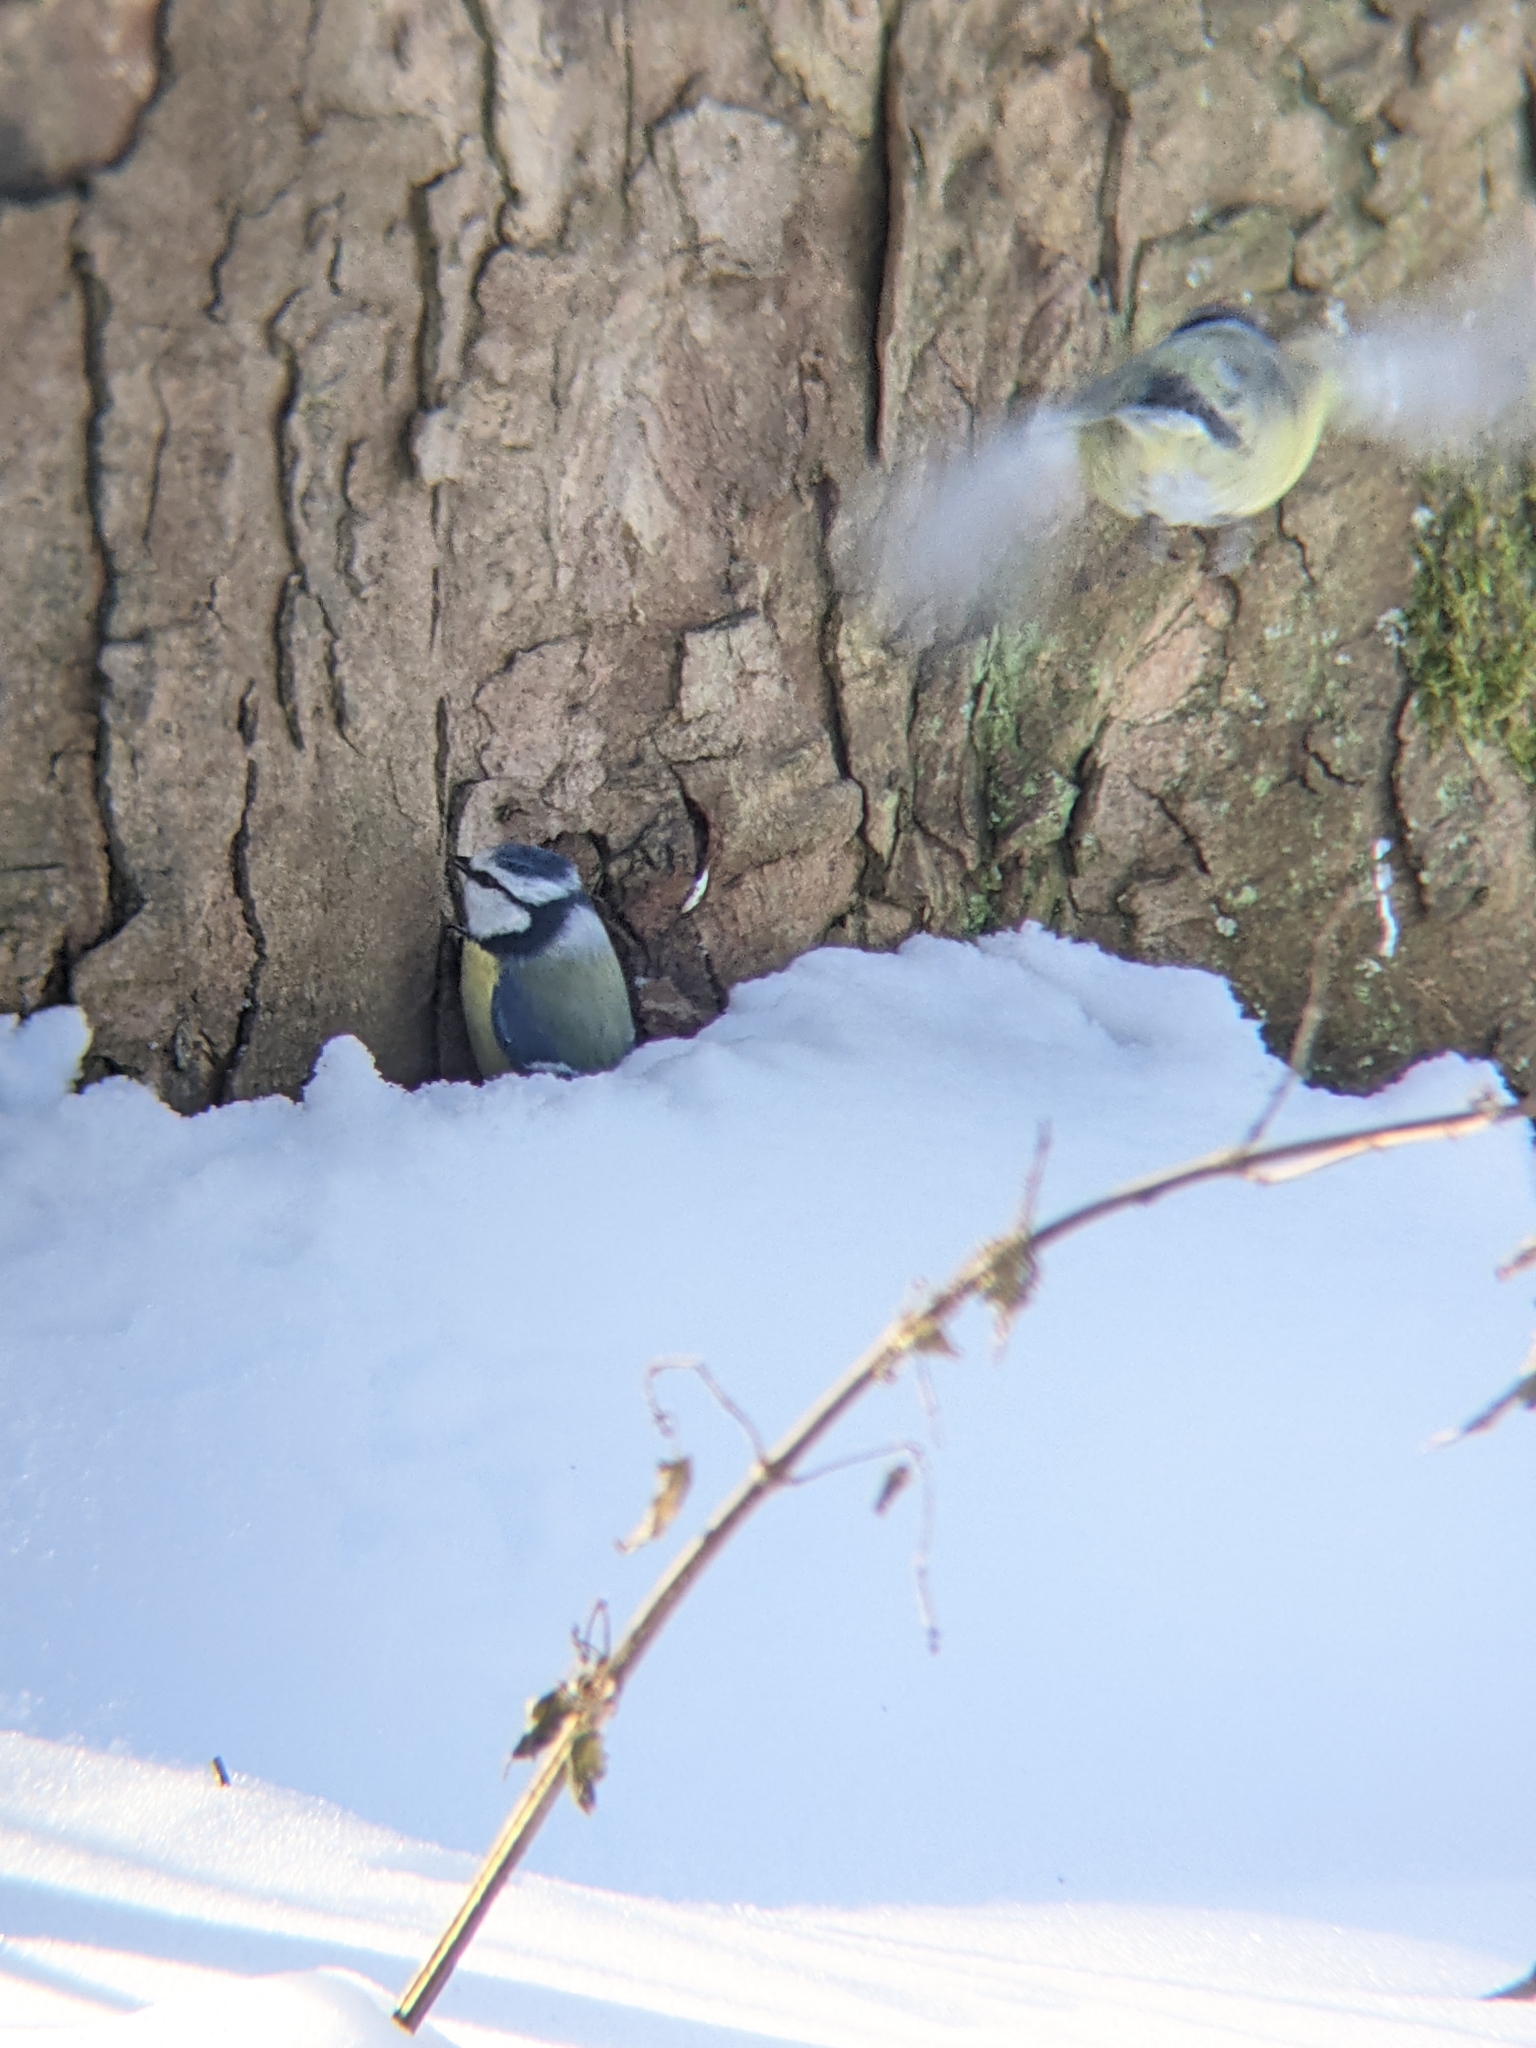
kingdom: Animalia
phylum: Chordata
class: Aves
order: Passeriformes
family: Paridae
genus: Cyanistes
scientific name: Cyanistes caeruleus
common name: Eurasian blue tit
